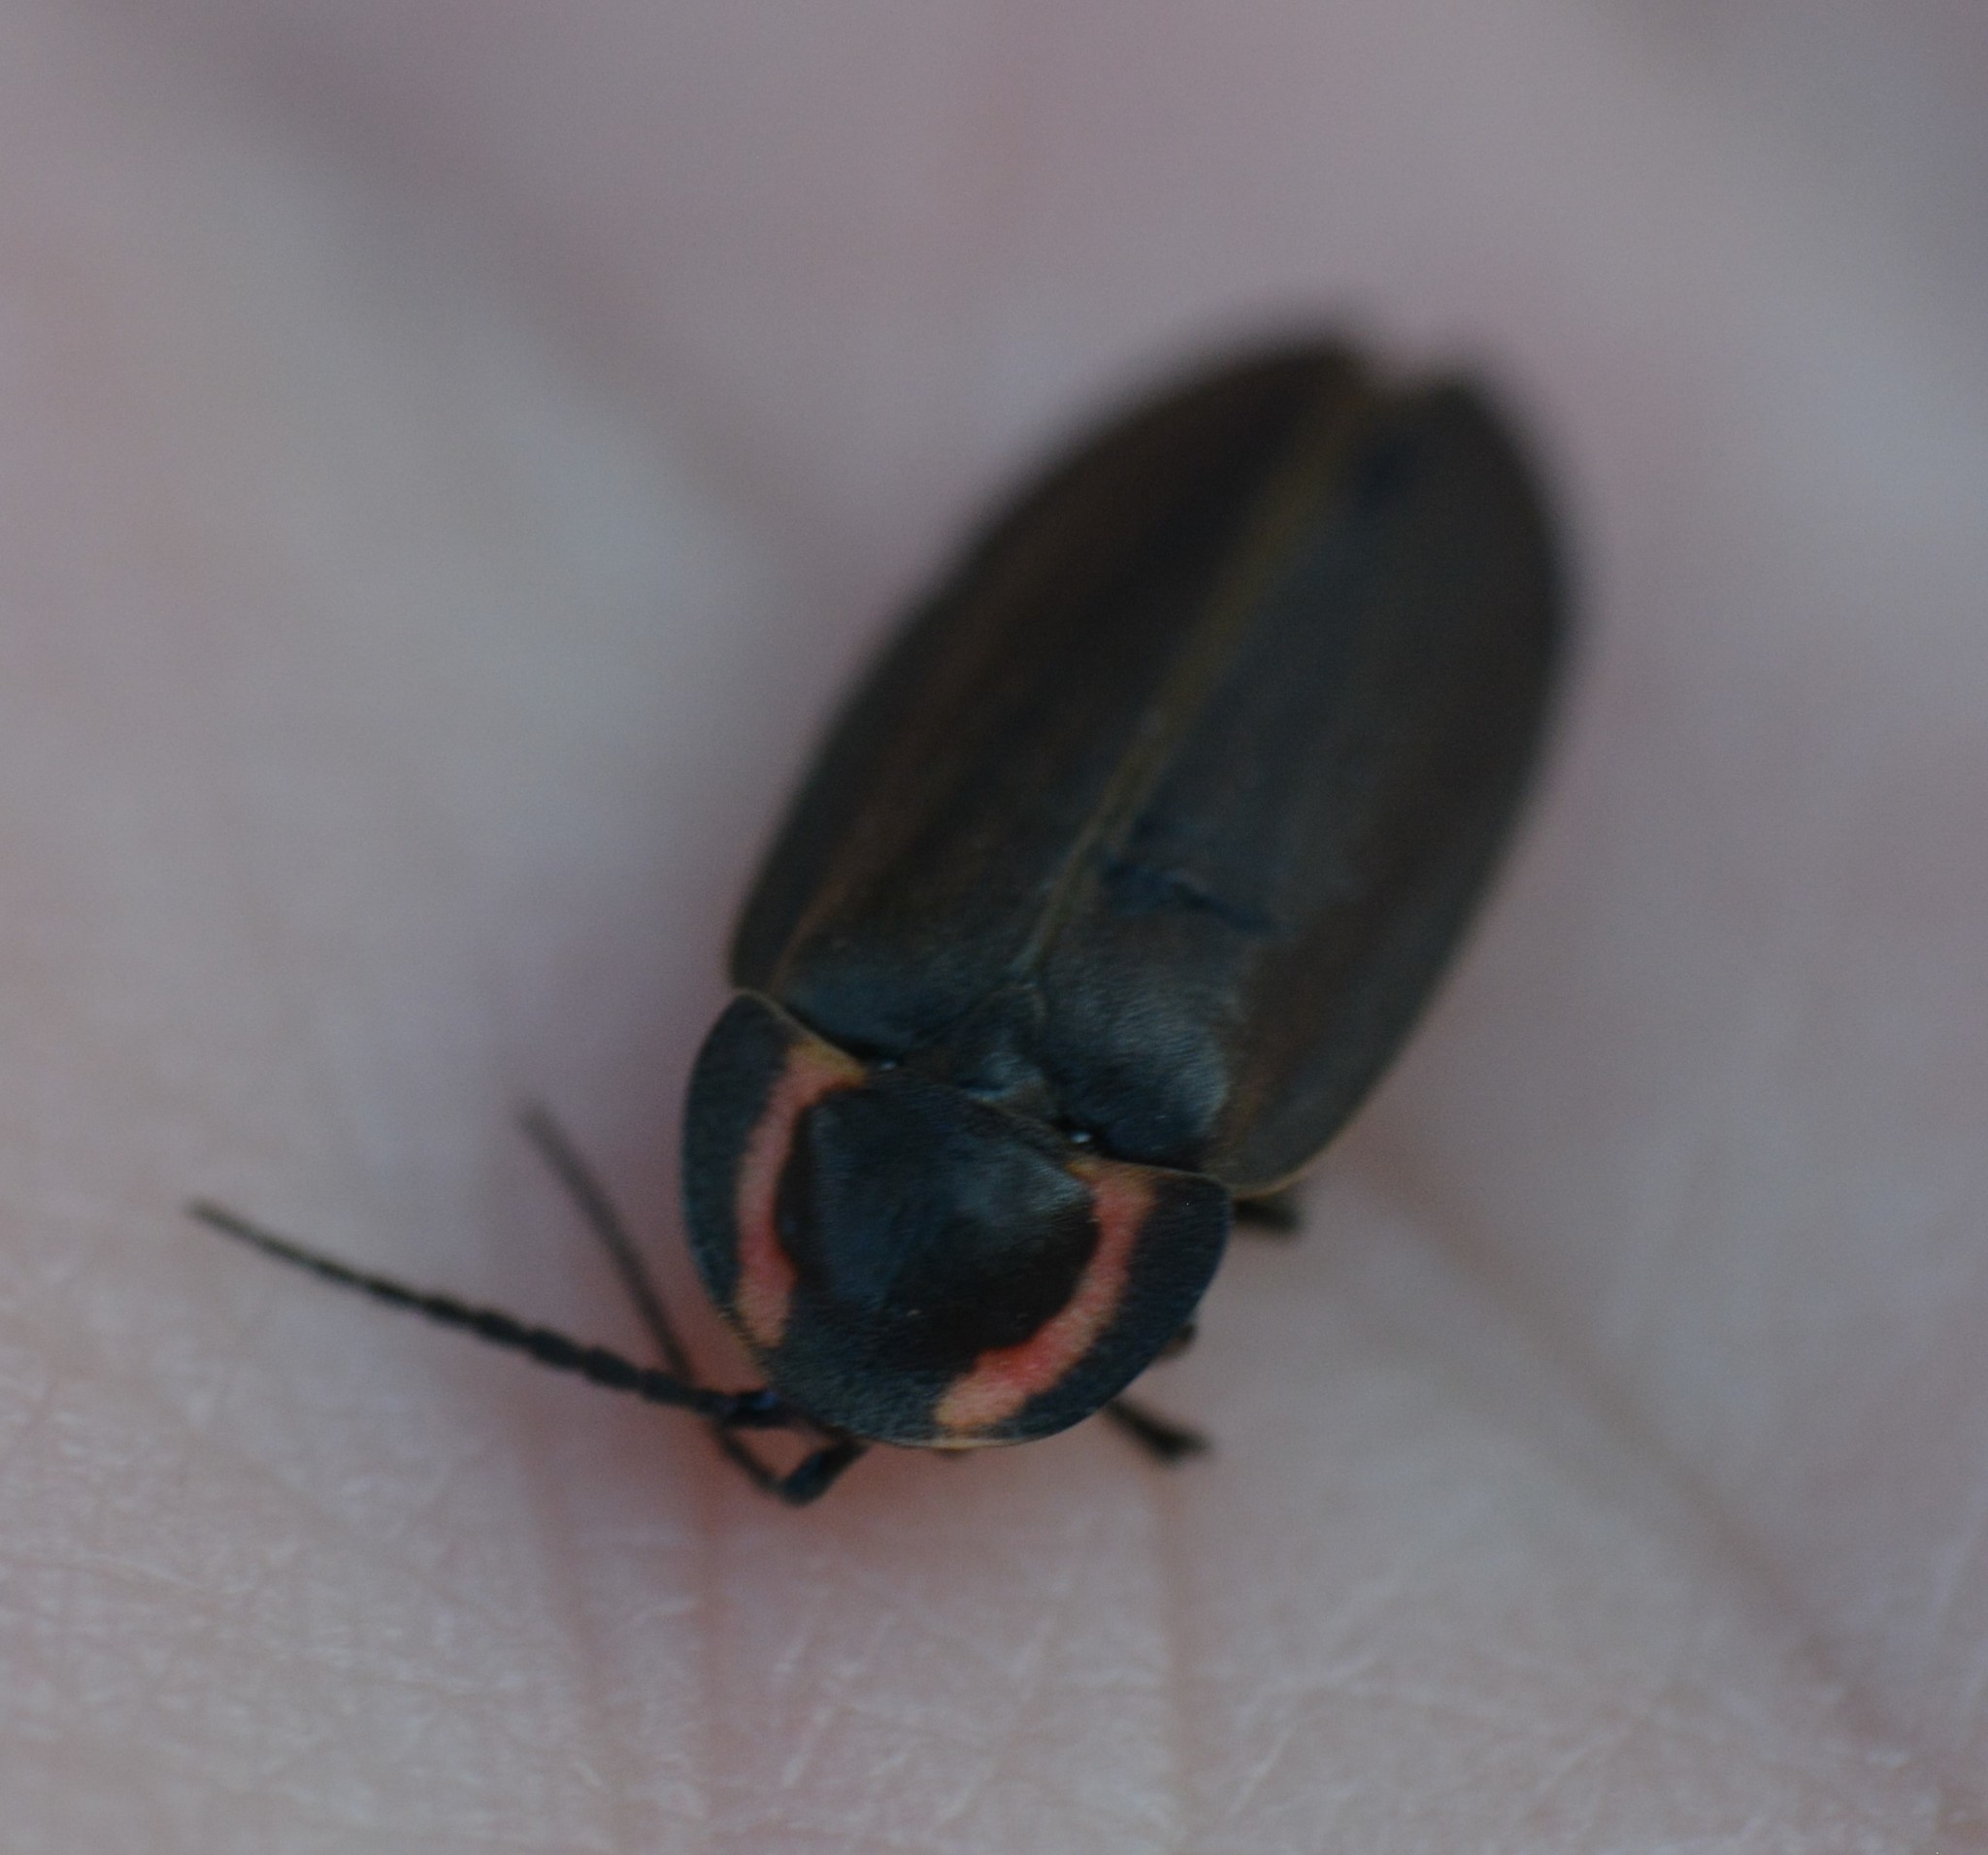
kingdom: Animalia
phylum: Arthropoda
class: Insecta
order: Coleoptera
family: Lampyridae
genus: Photinus
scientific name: Photinus corrusca
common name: Winter firefly
